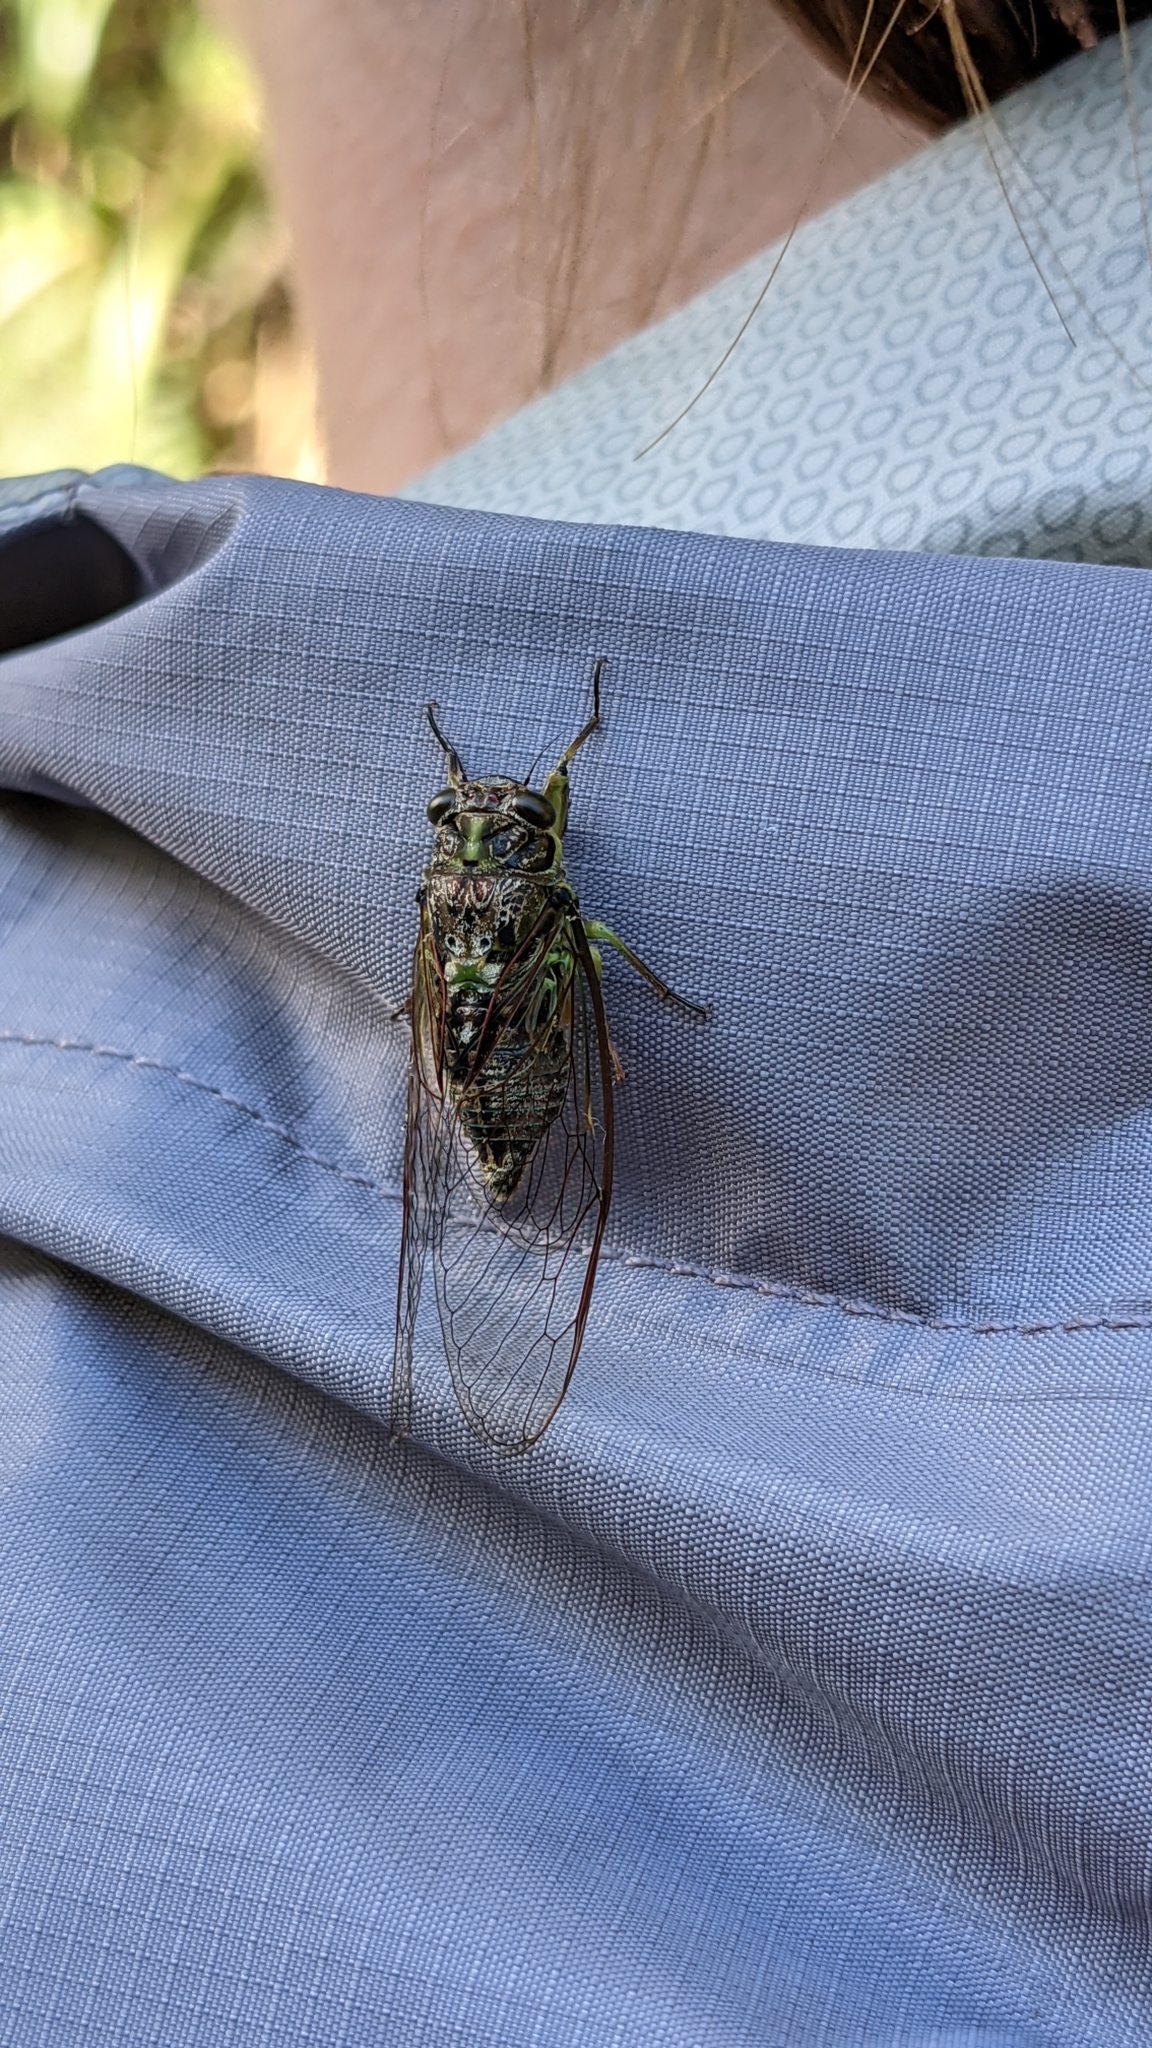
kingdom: Animalia
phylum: Arthropoda
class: Insecta
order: Hemiptera
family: Cicadidae
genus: Kikihia
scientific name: Kikihia scutellaris
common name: Lesser bronze cicada
